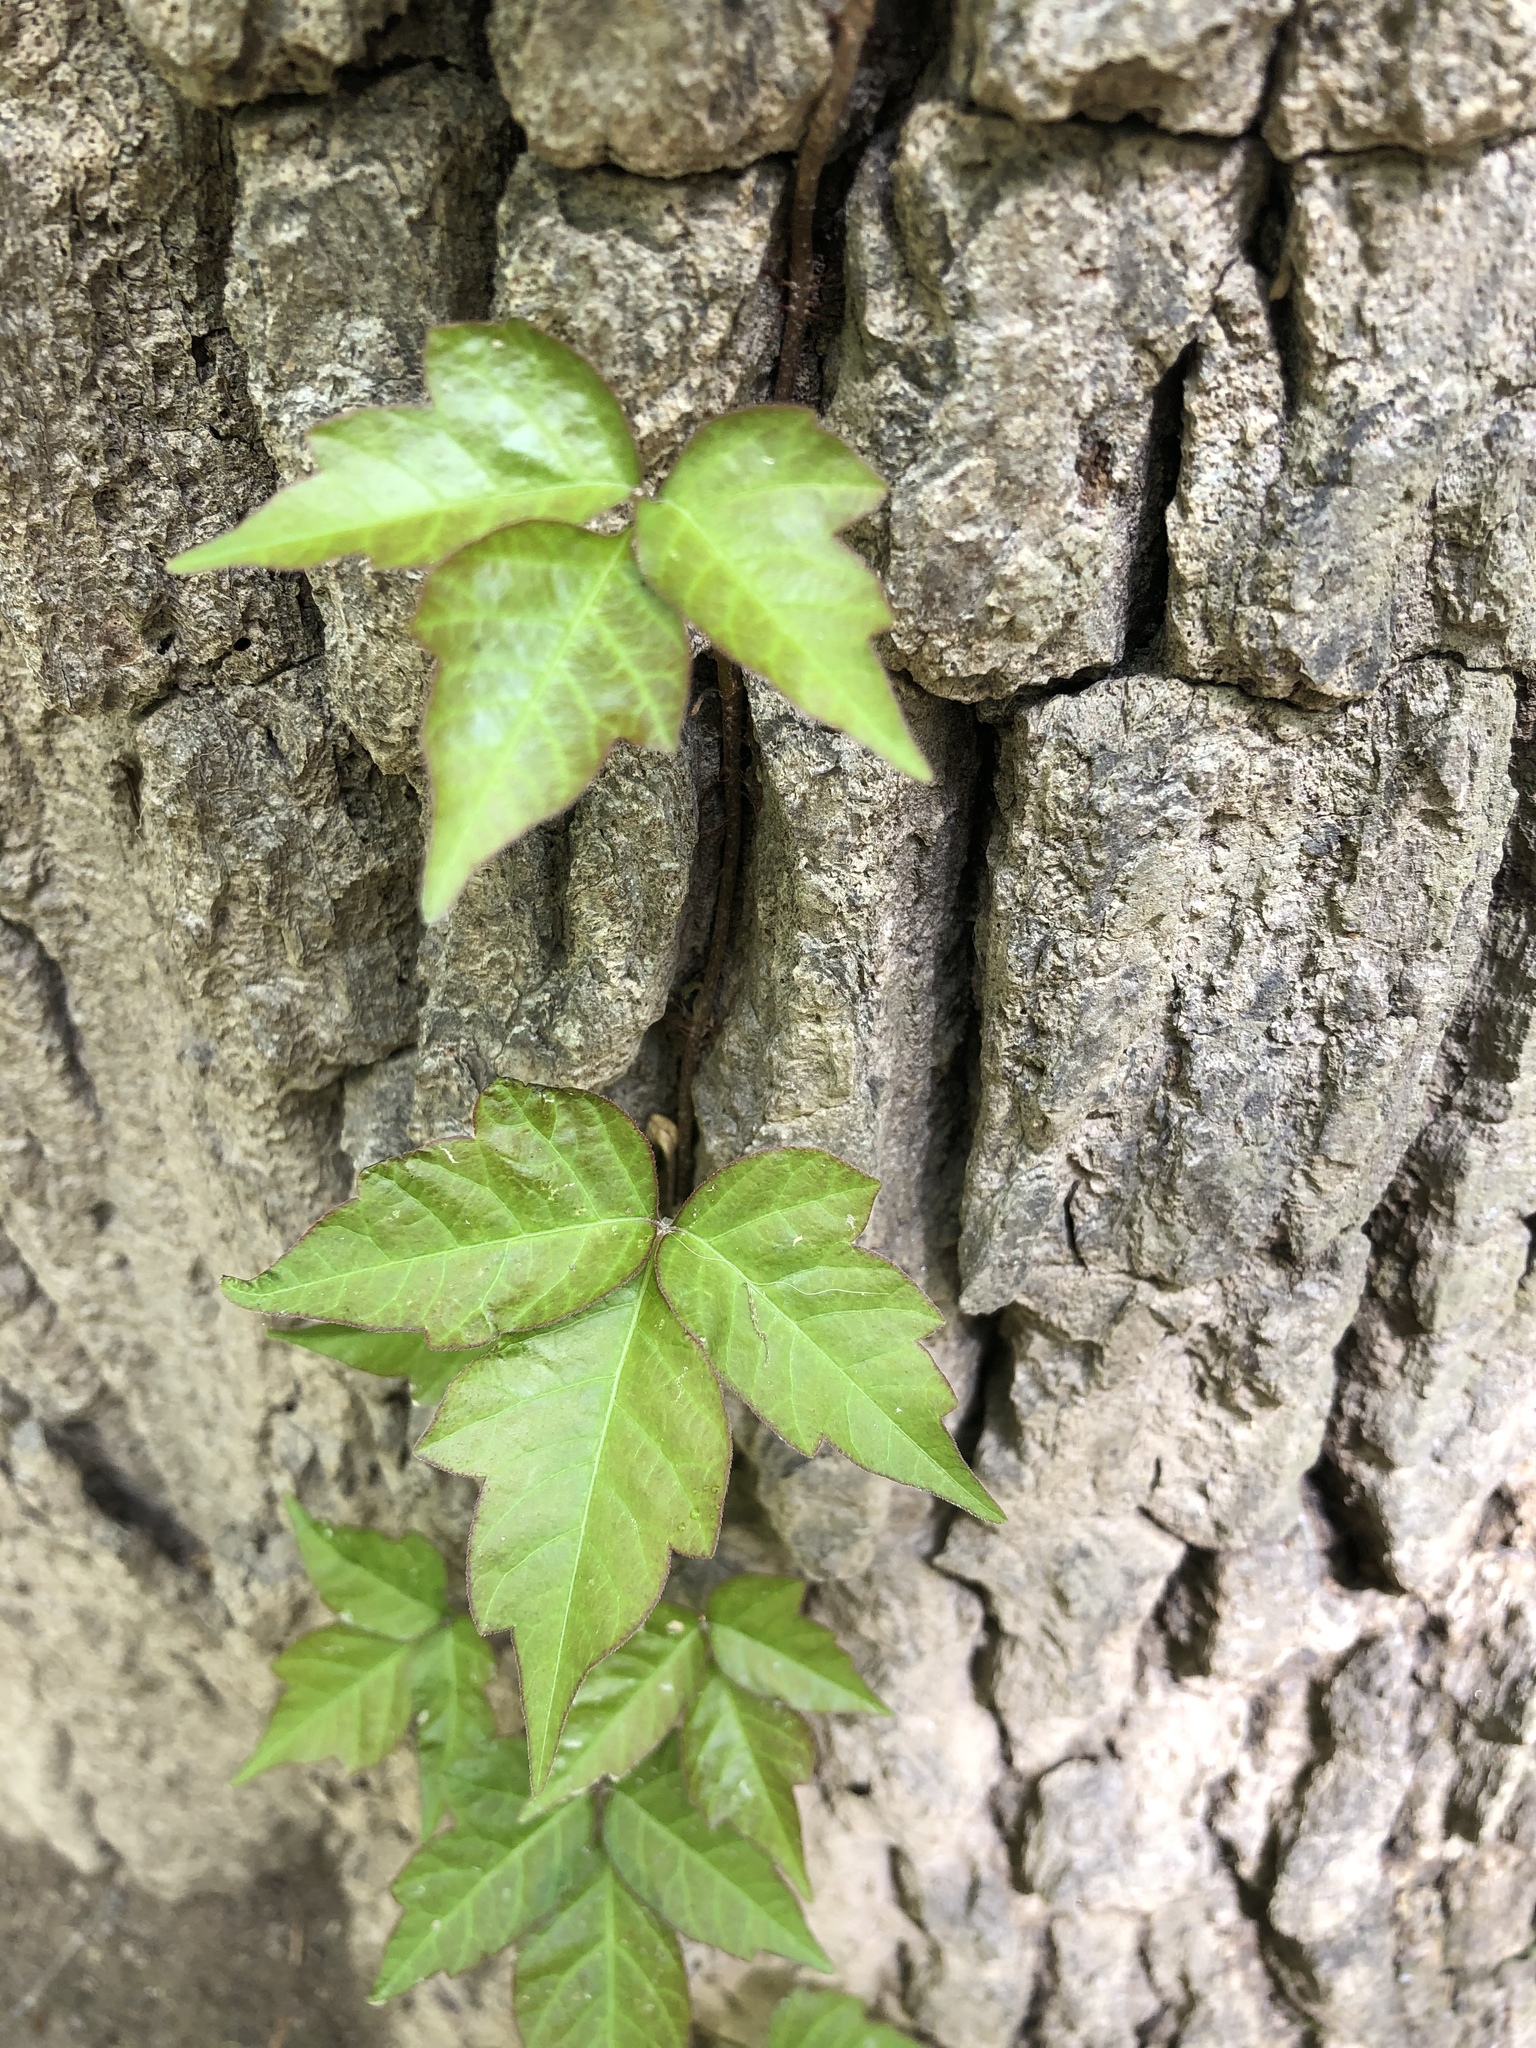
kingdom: Plantae
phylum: Tracheophyta
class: Magnoliopsida
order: Sapindales
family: Anacardiaceae
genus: Toxicodendron
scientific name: Toxicodendron radicans
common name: Poison ivy
